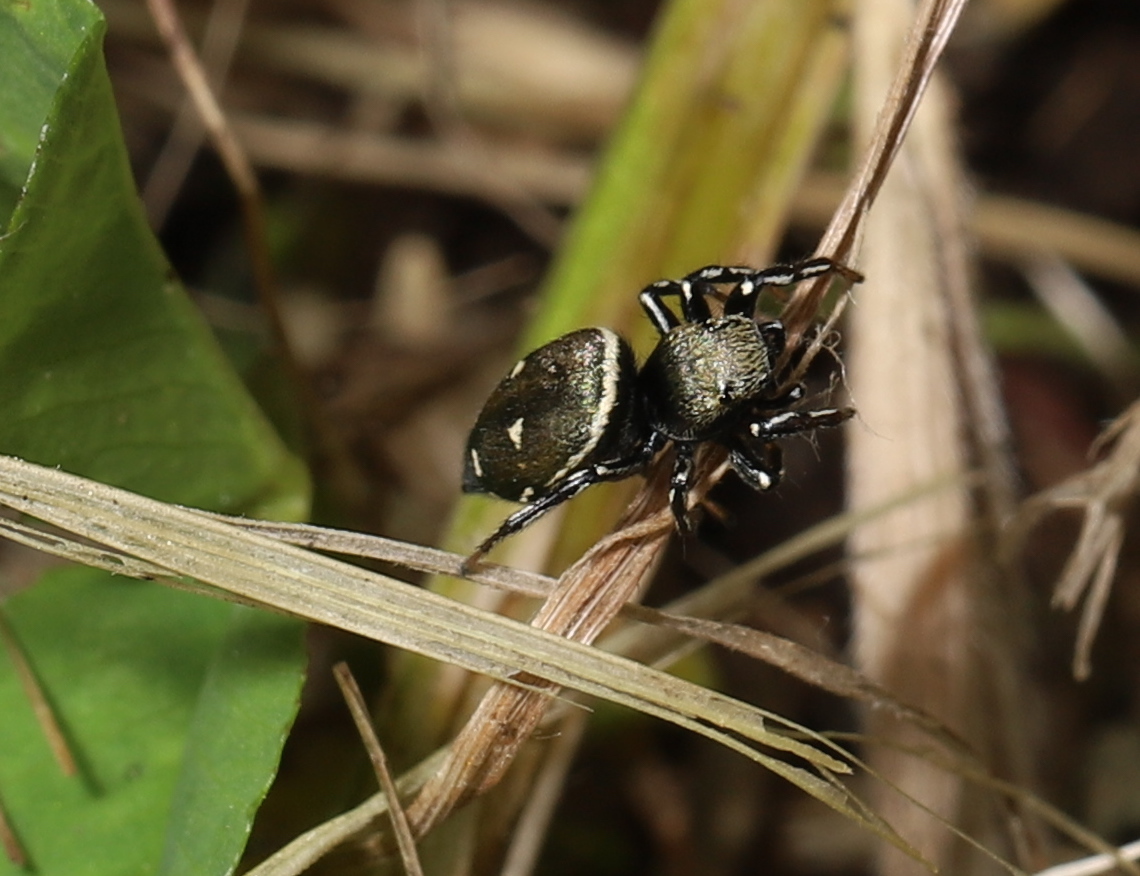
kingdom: Animalia
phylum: Arthropoda
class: Arachnida
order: Araneae
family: Salticidae
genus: Heliophanus
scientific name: Heliophanus kochii
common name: Sun jumping spider
